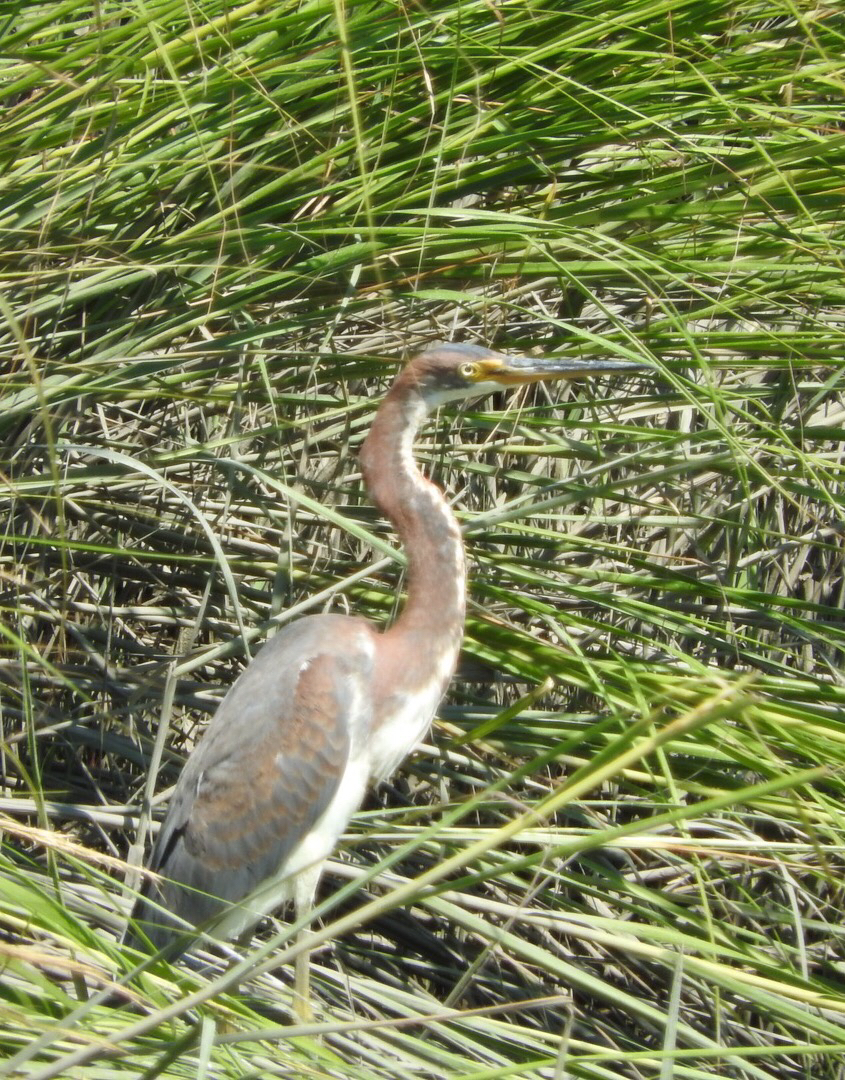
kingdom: Animalia
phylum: Chordata
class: Aves
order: Pelecaniformes
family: Ardeidae
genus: Egretta
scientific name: Egretta tricolor
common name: Tricolored heron
